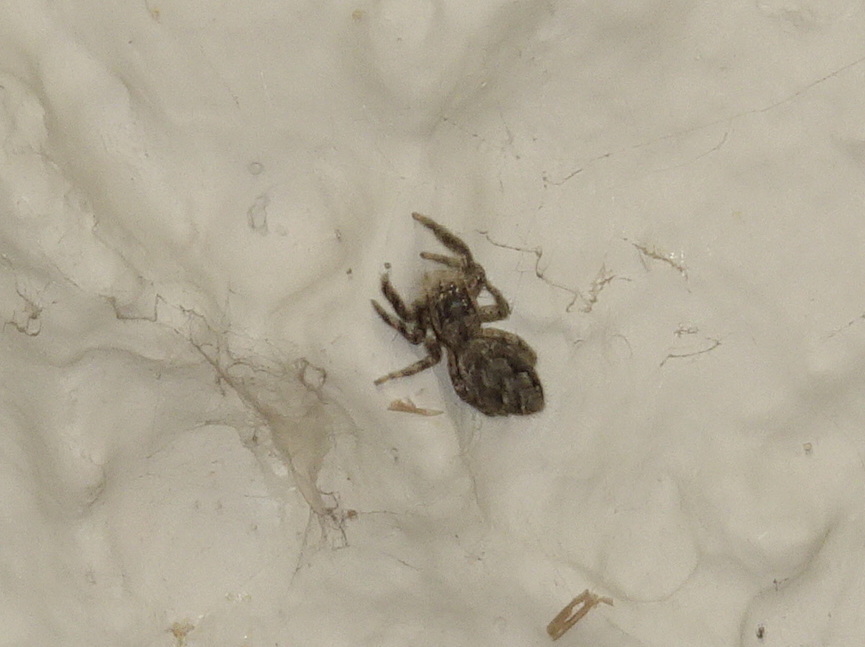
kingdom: Animalia
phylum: Arthropoda
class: Arachnida
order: Araneae
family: Salticidae
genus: Platycryptus
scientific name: Platycryptus undatus
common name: Tan jumping spider
